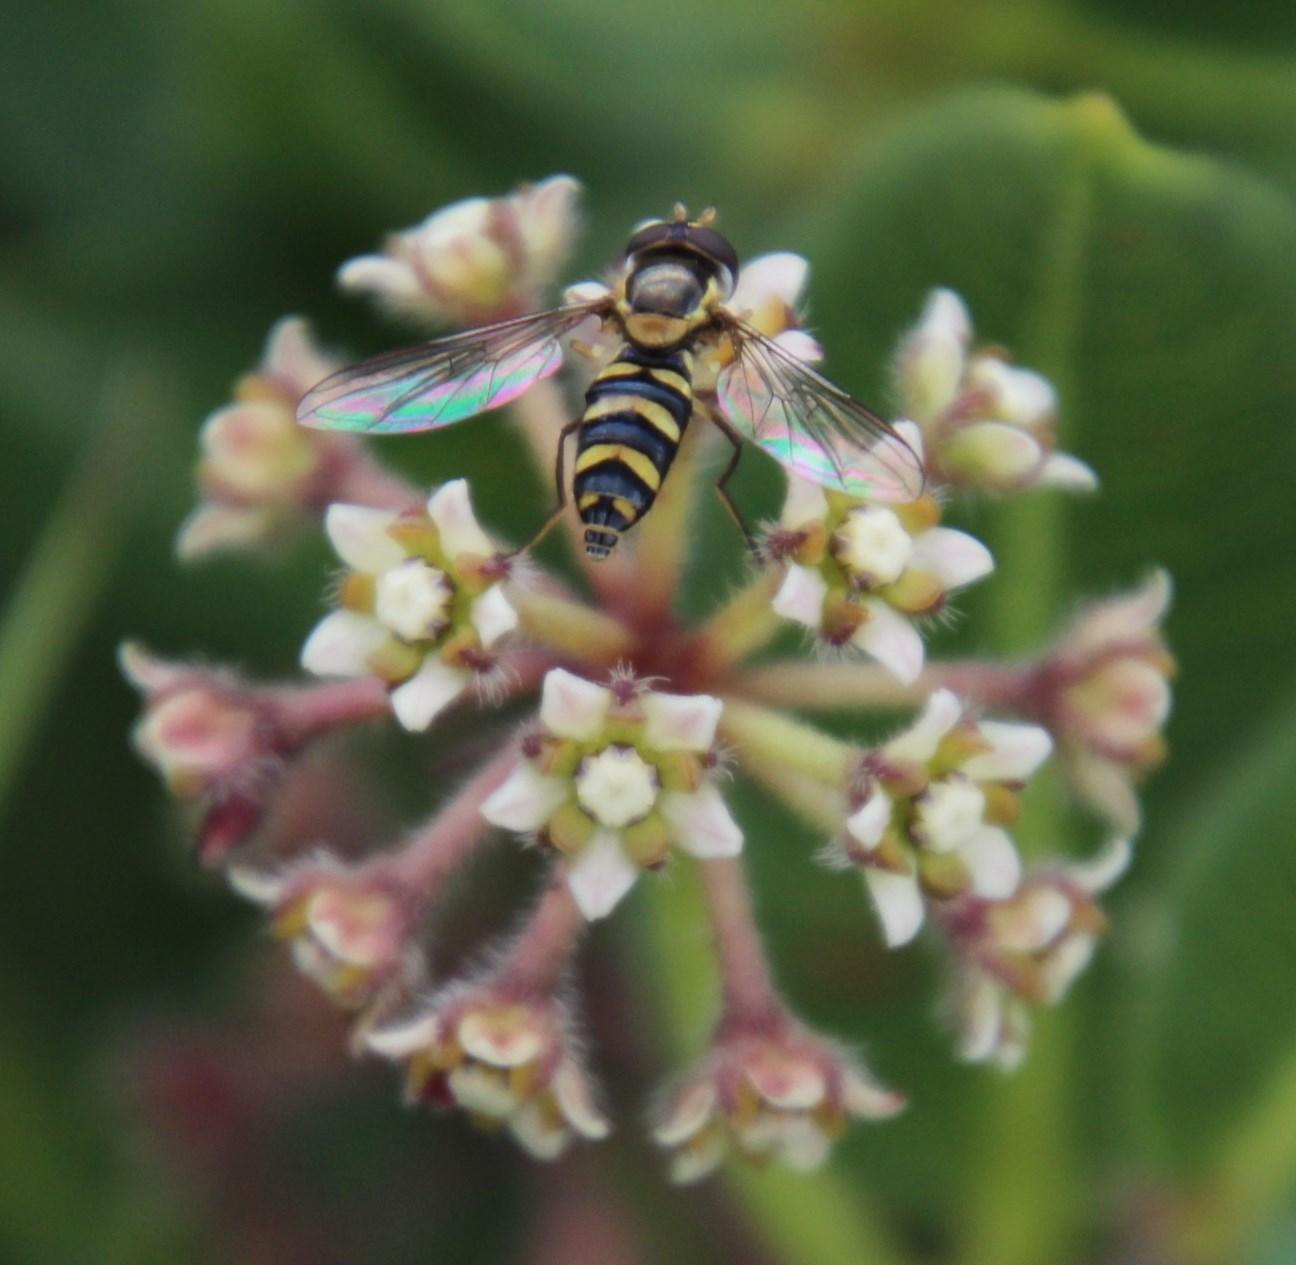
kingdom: Animalia
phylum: Arthropoda
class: Insecta
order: Diptera
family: Syrphidae
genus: Allograpta
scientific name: Allograpta fuscotibialis
